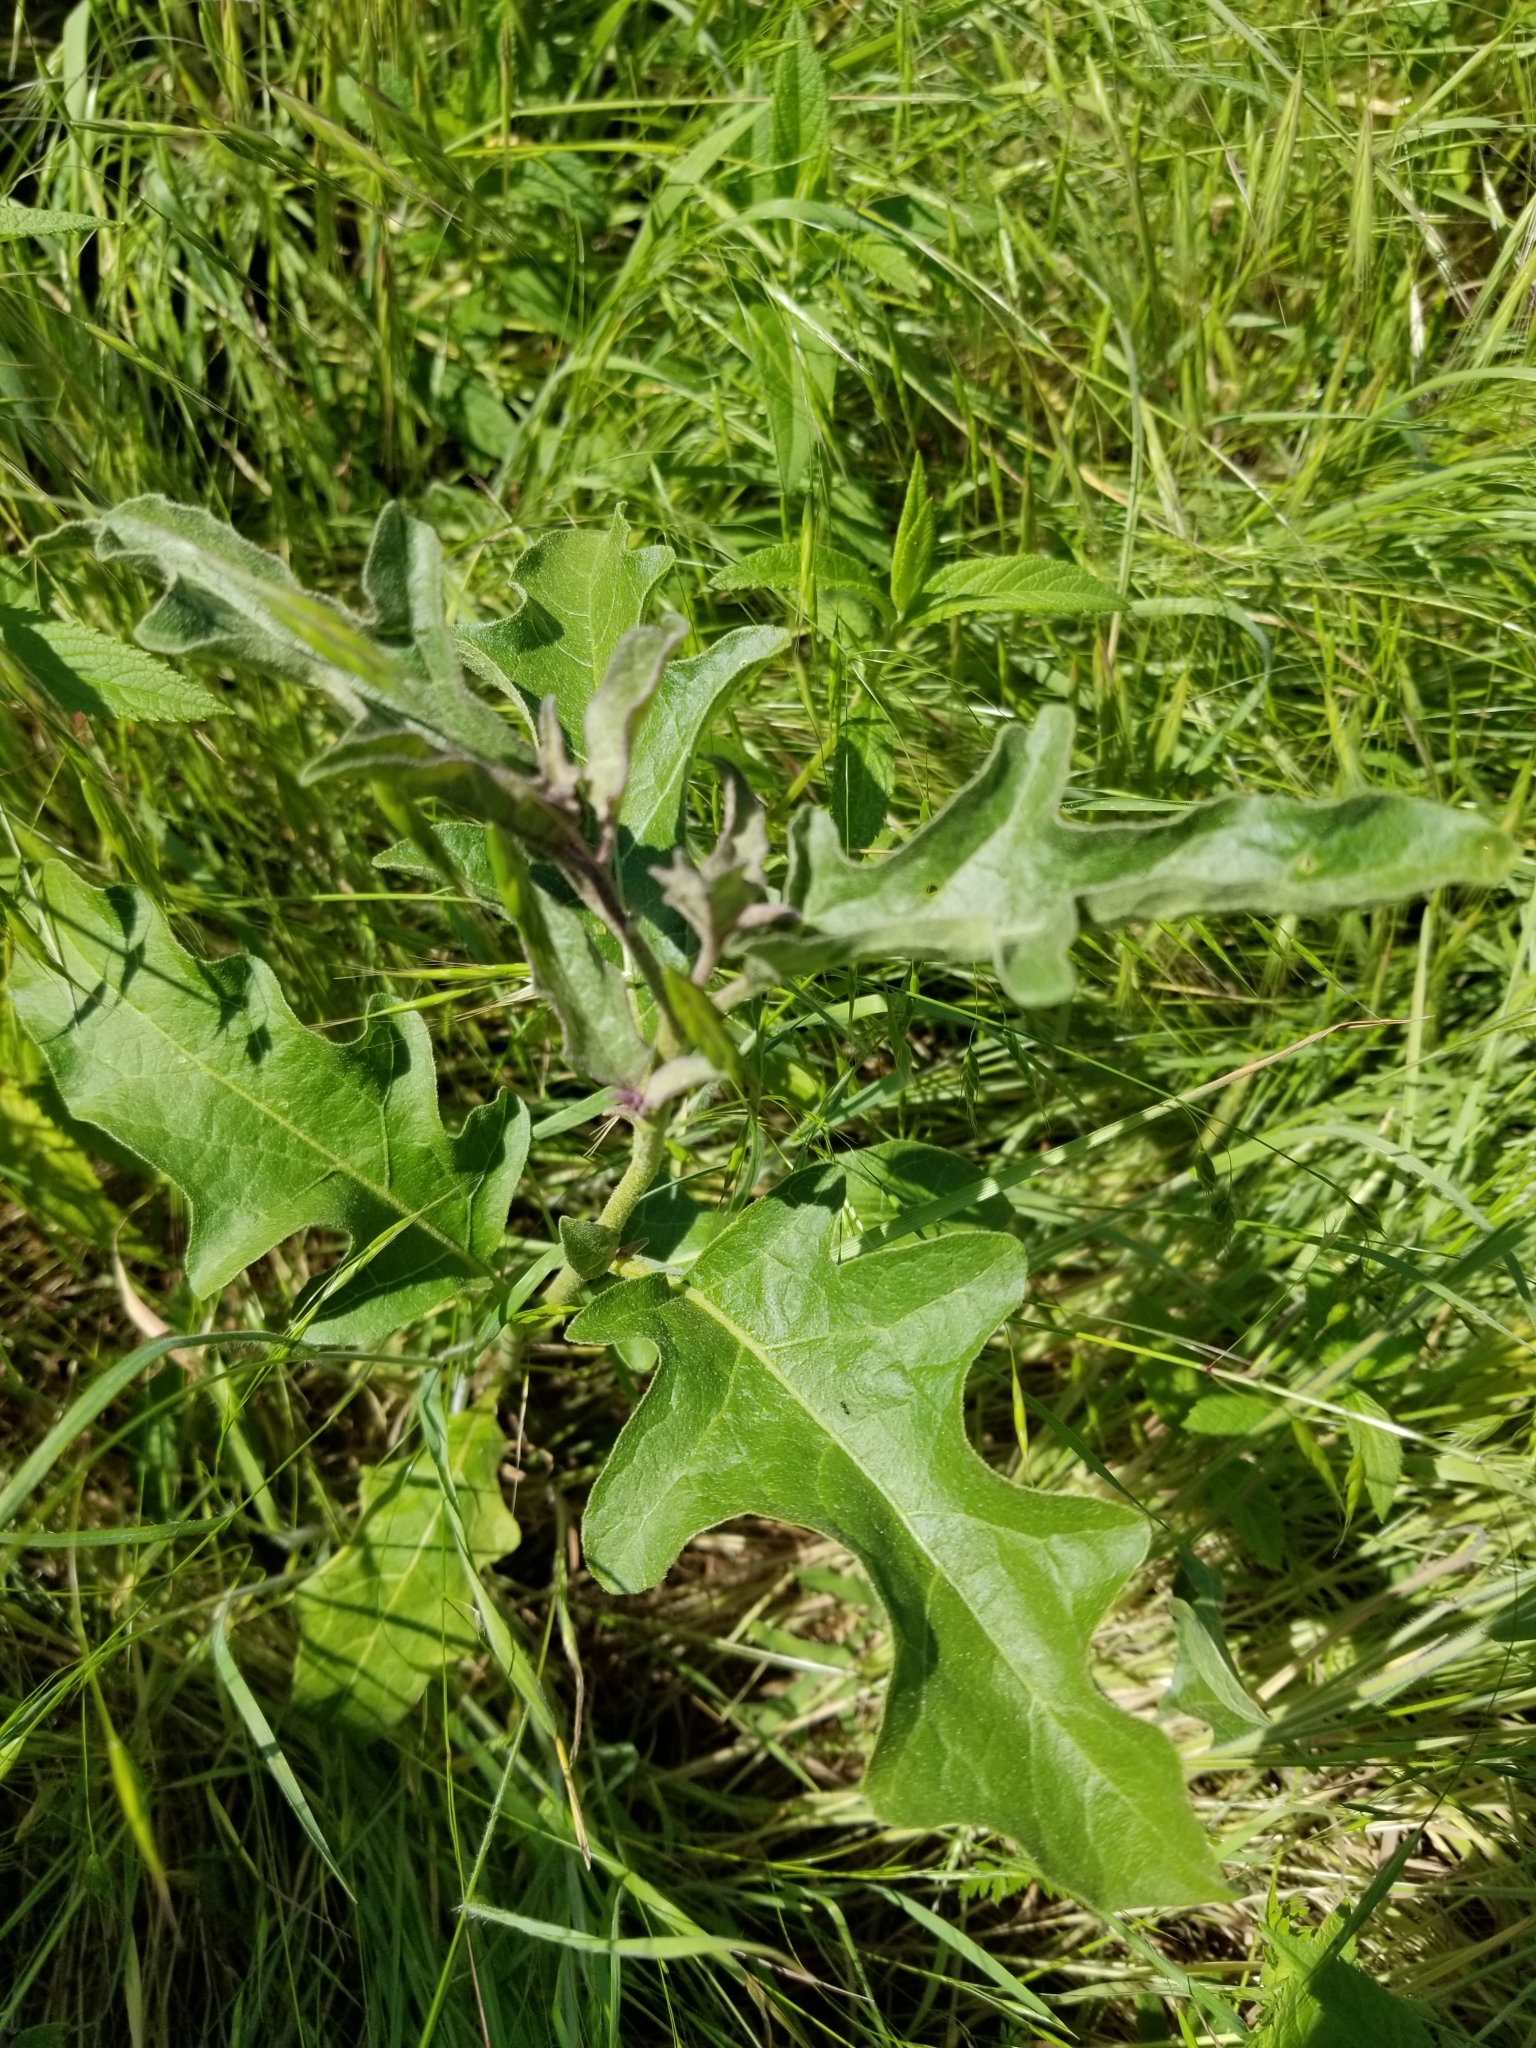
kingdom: Plantae
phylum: Tracheophyta
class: Magnoliopsida
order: Solanales
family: Solanaceae
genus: Solanum
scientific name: Solanum dimidiatum
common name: Carolina horse-nettle
